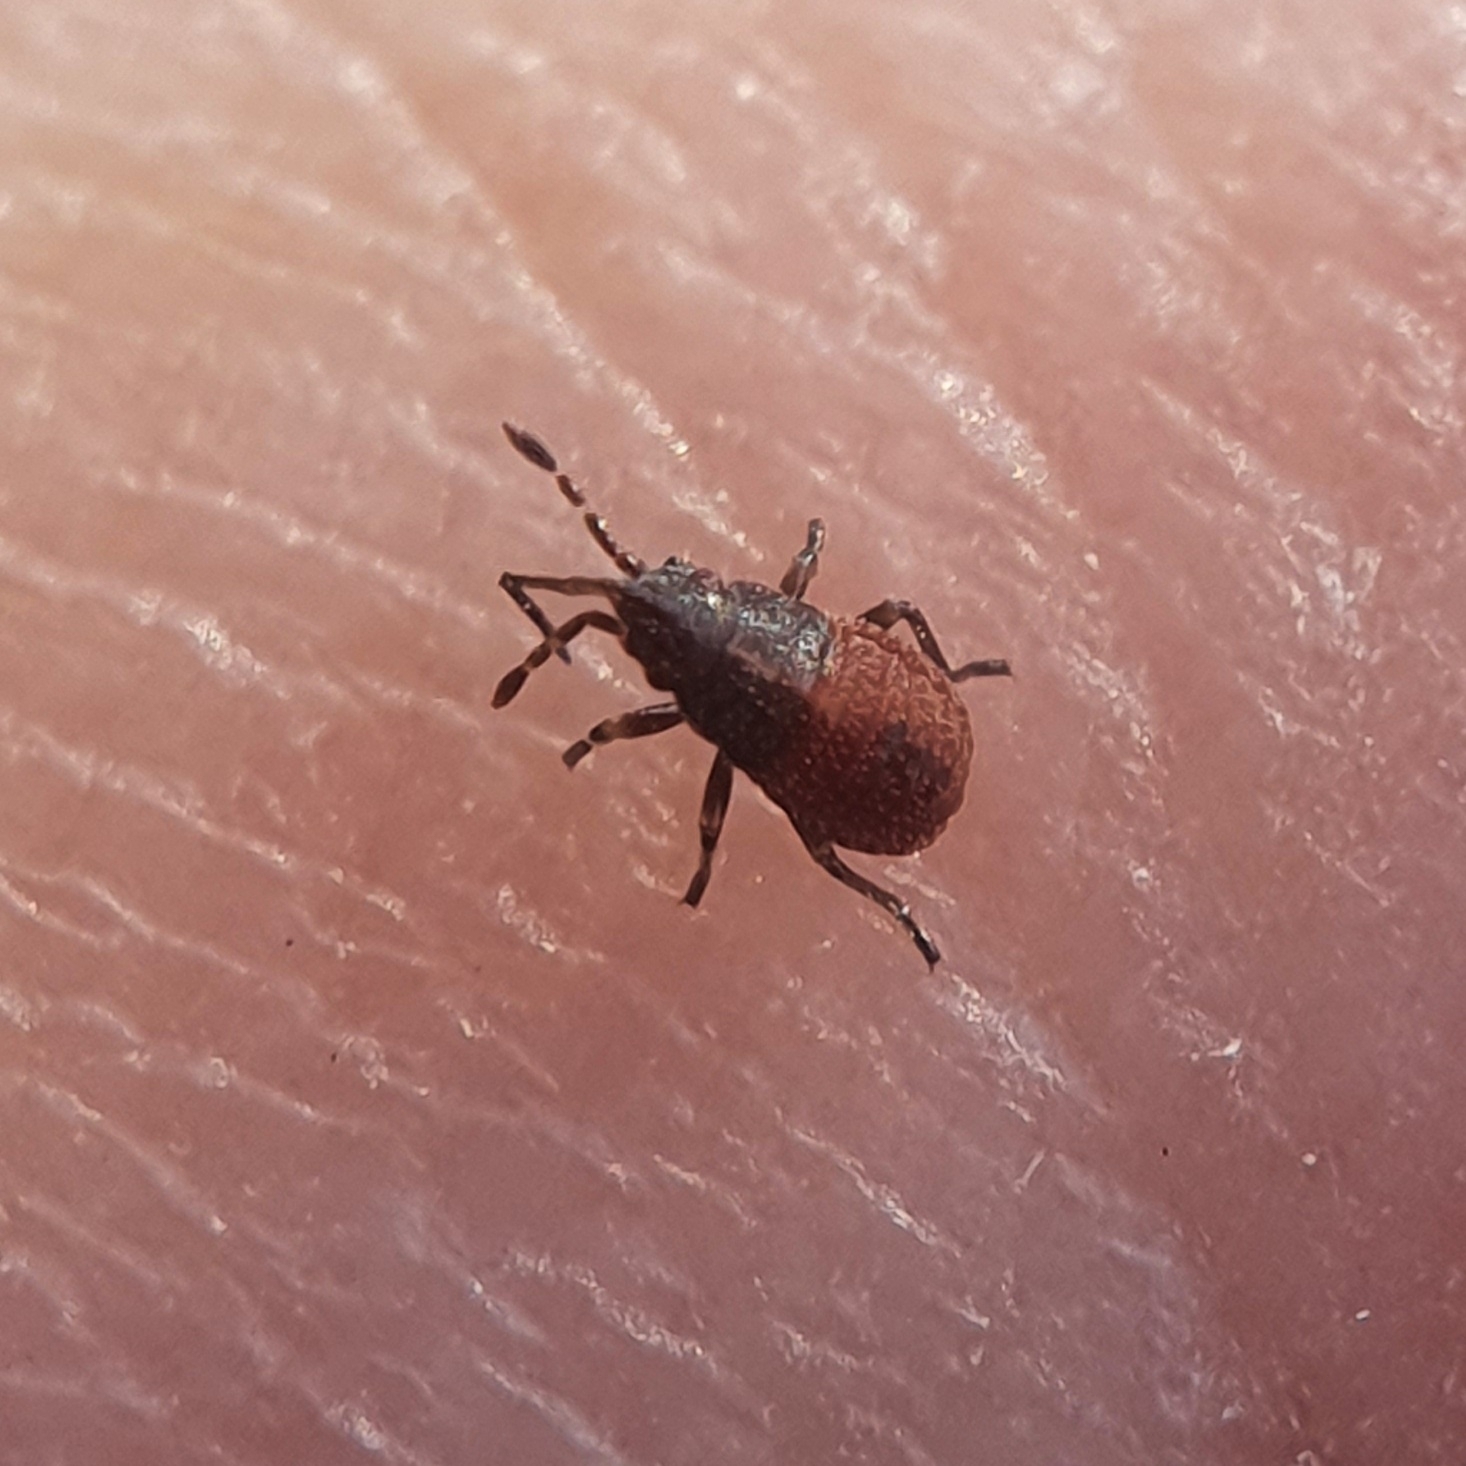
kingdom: Animalia
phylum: Arthropoda
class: Insecta
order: Hemiptera
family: Lygaeidae
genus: Kleidocerys
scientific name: Kleidocerys resedae
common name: Birch catkin bug
